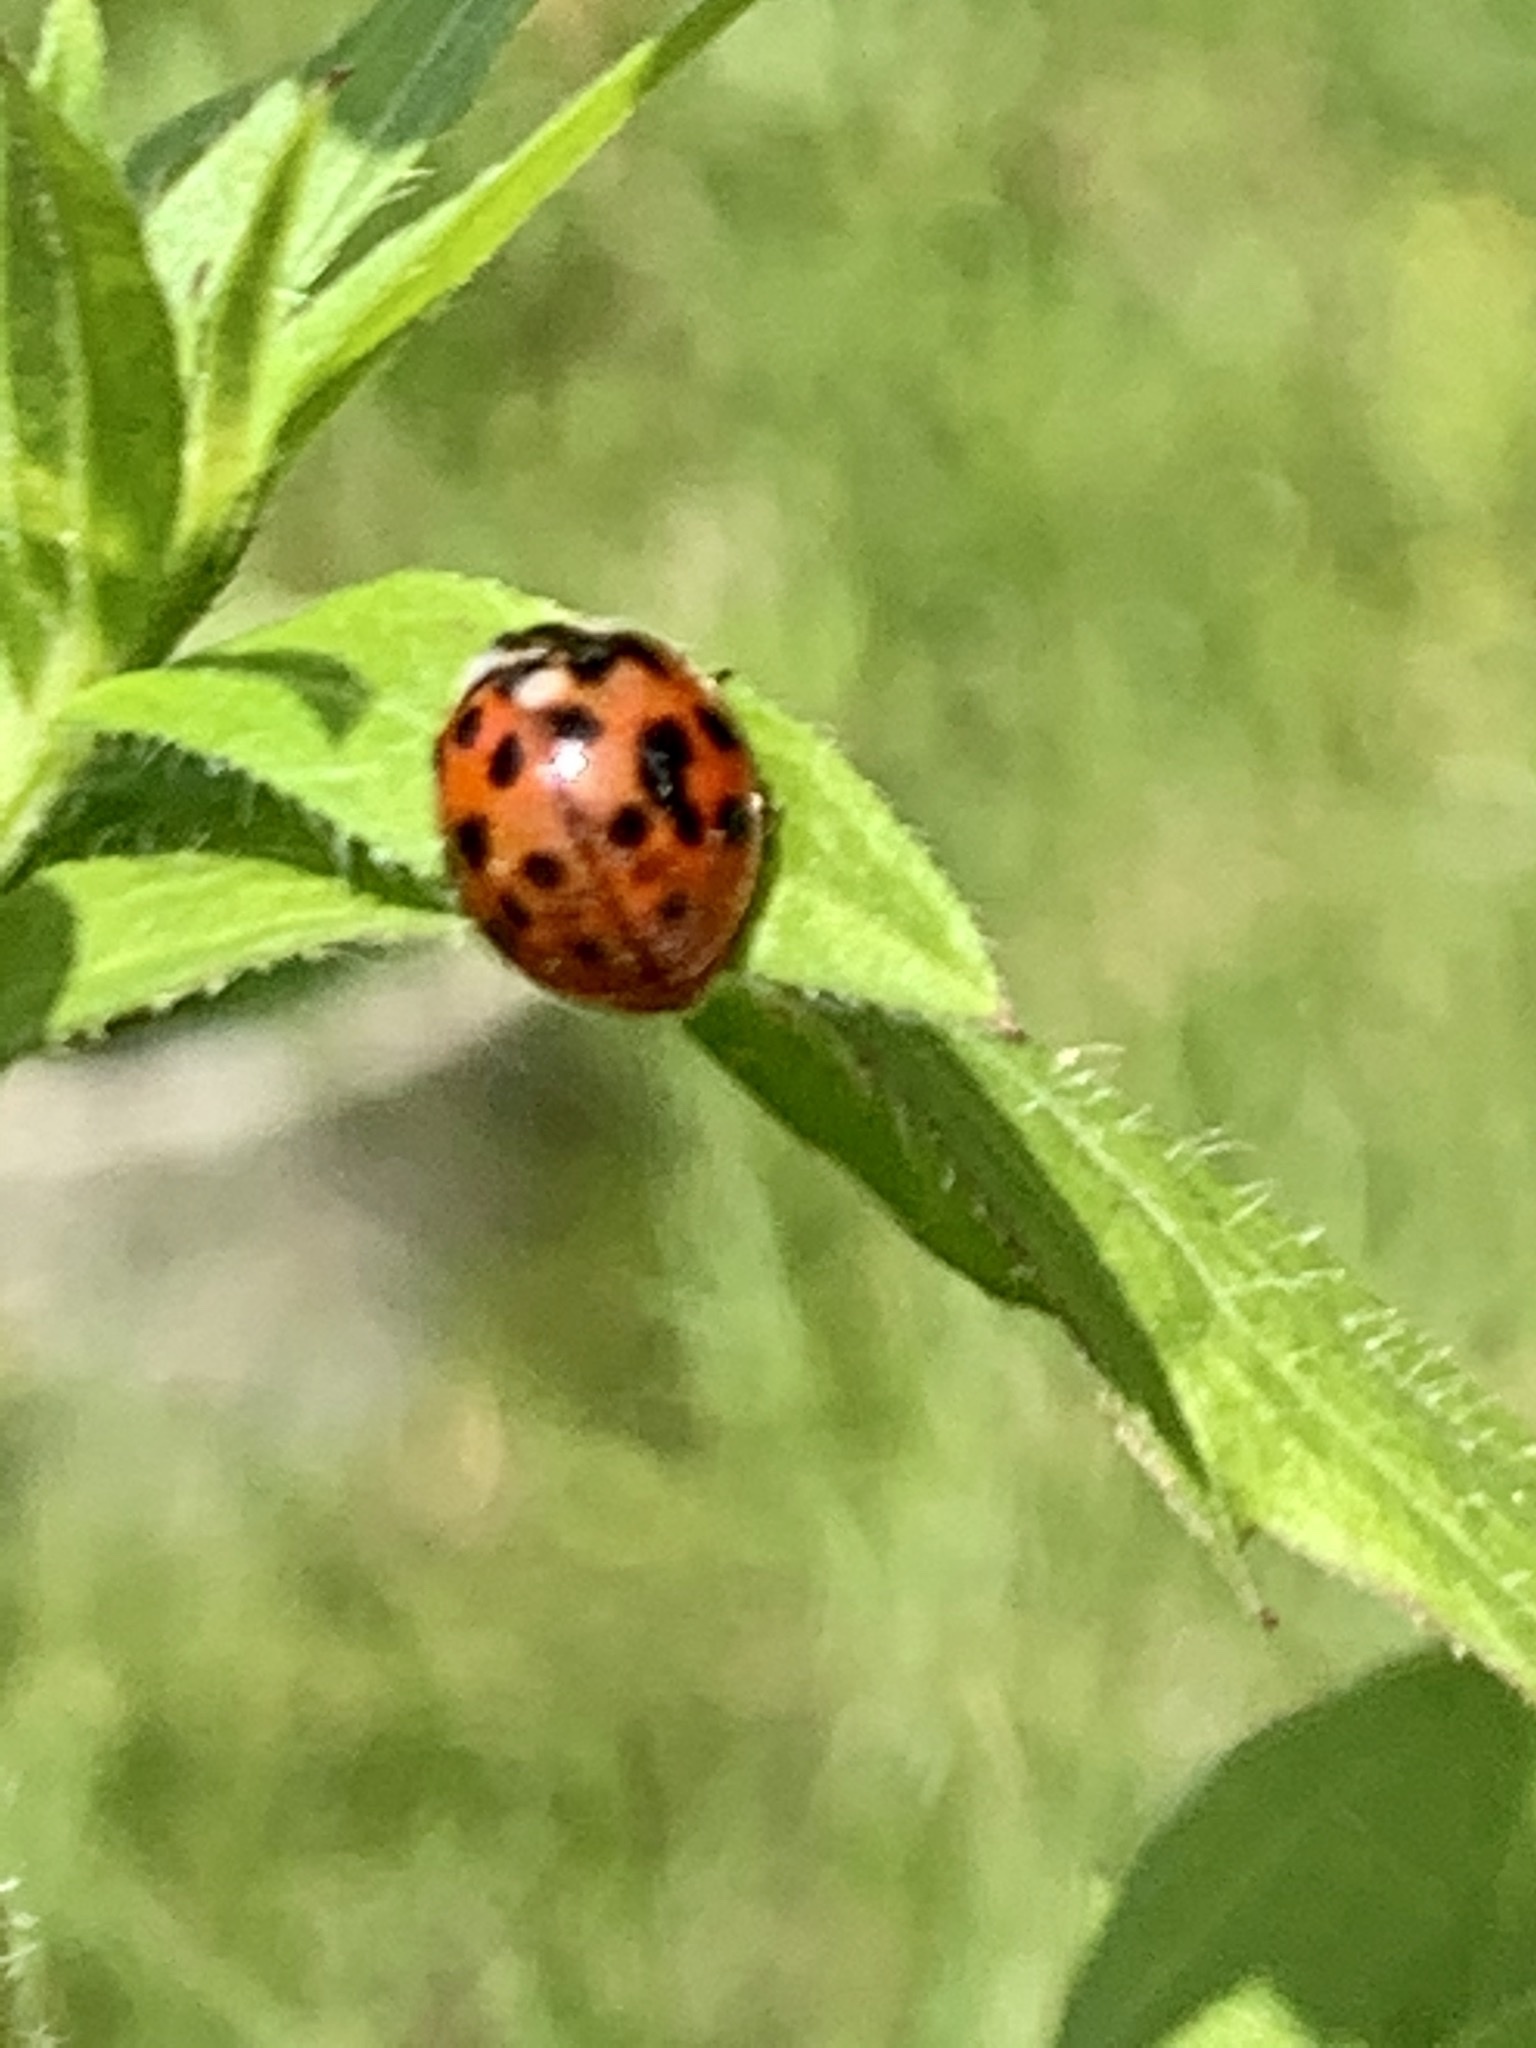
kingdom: Animalia
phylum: Arthropoda
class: Insecta
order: Coleoptera
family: Coccinellidae
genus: Harmonia
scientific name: Harmonia axyridis
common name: Harlequin ladybird
